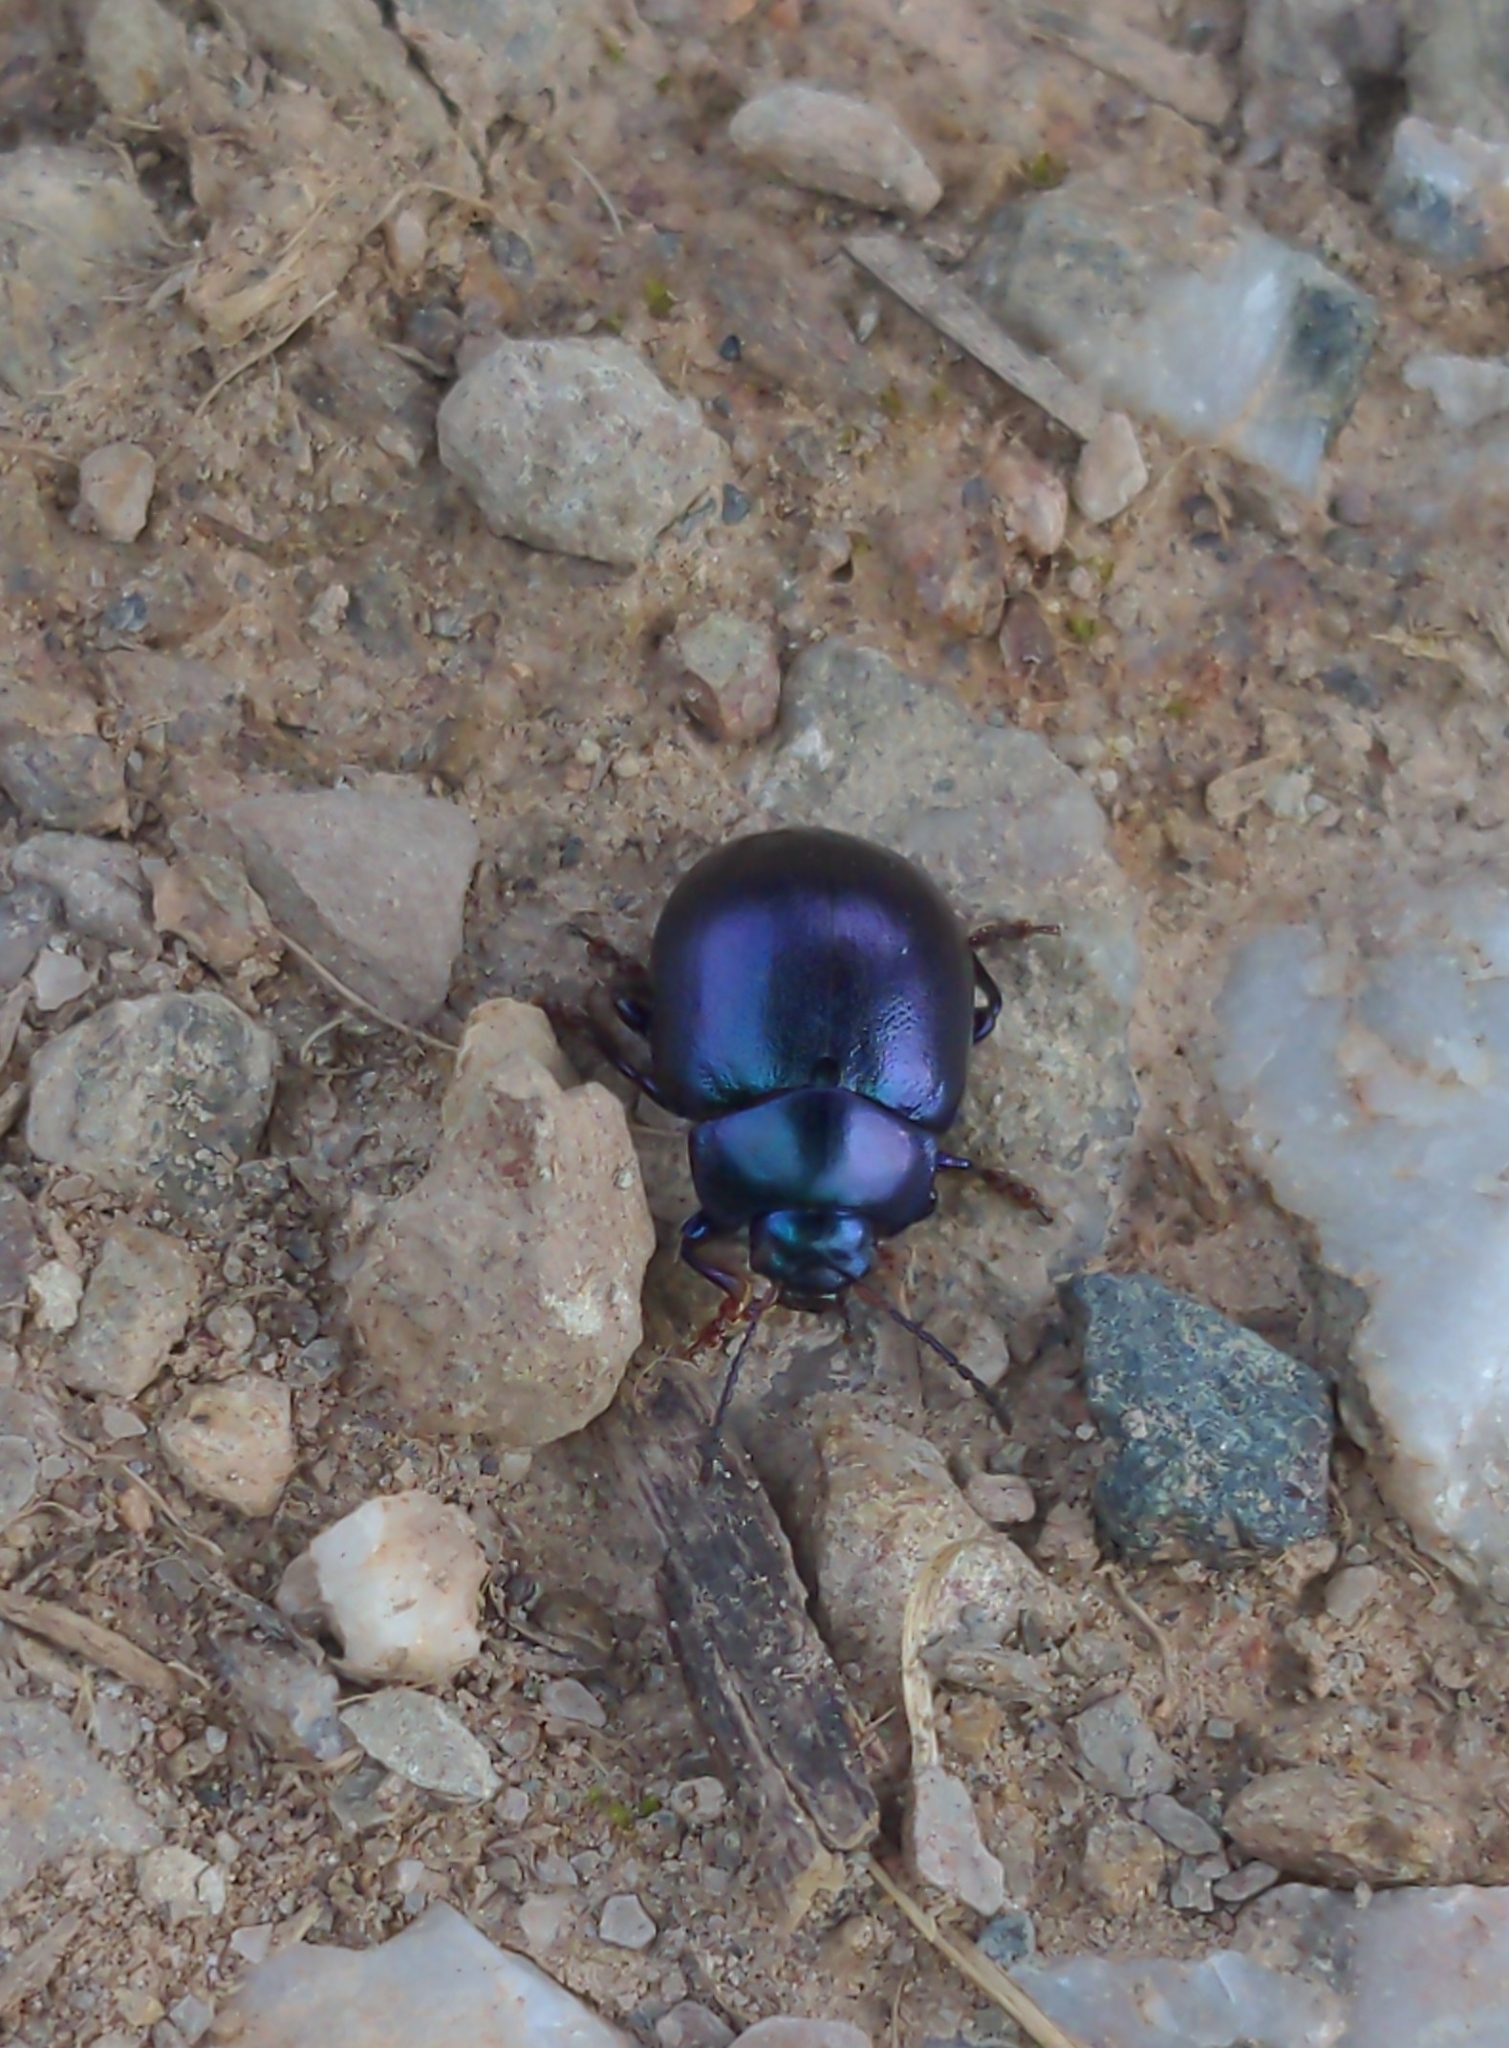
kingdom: Animalia
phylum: Arthropoda
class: Insecta
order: Coleoptera
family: Chrysomelidae
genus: Chrysolina
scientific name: Chrysolina sturmi
